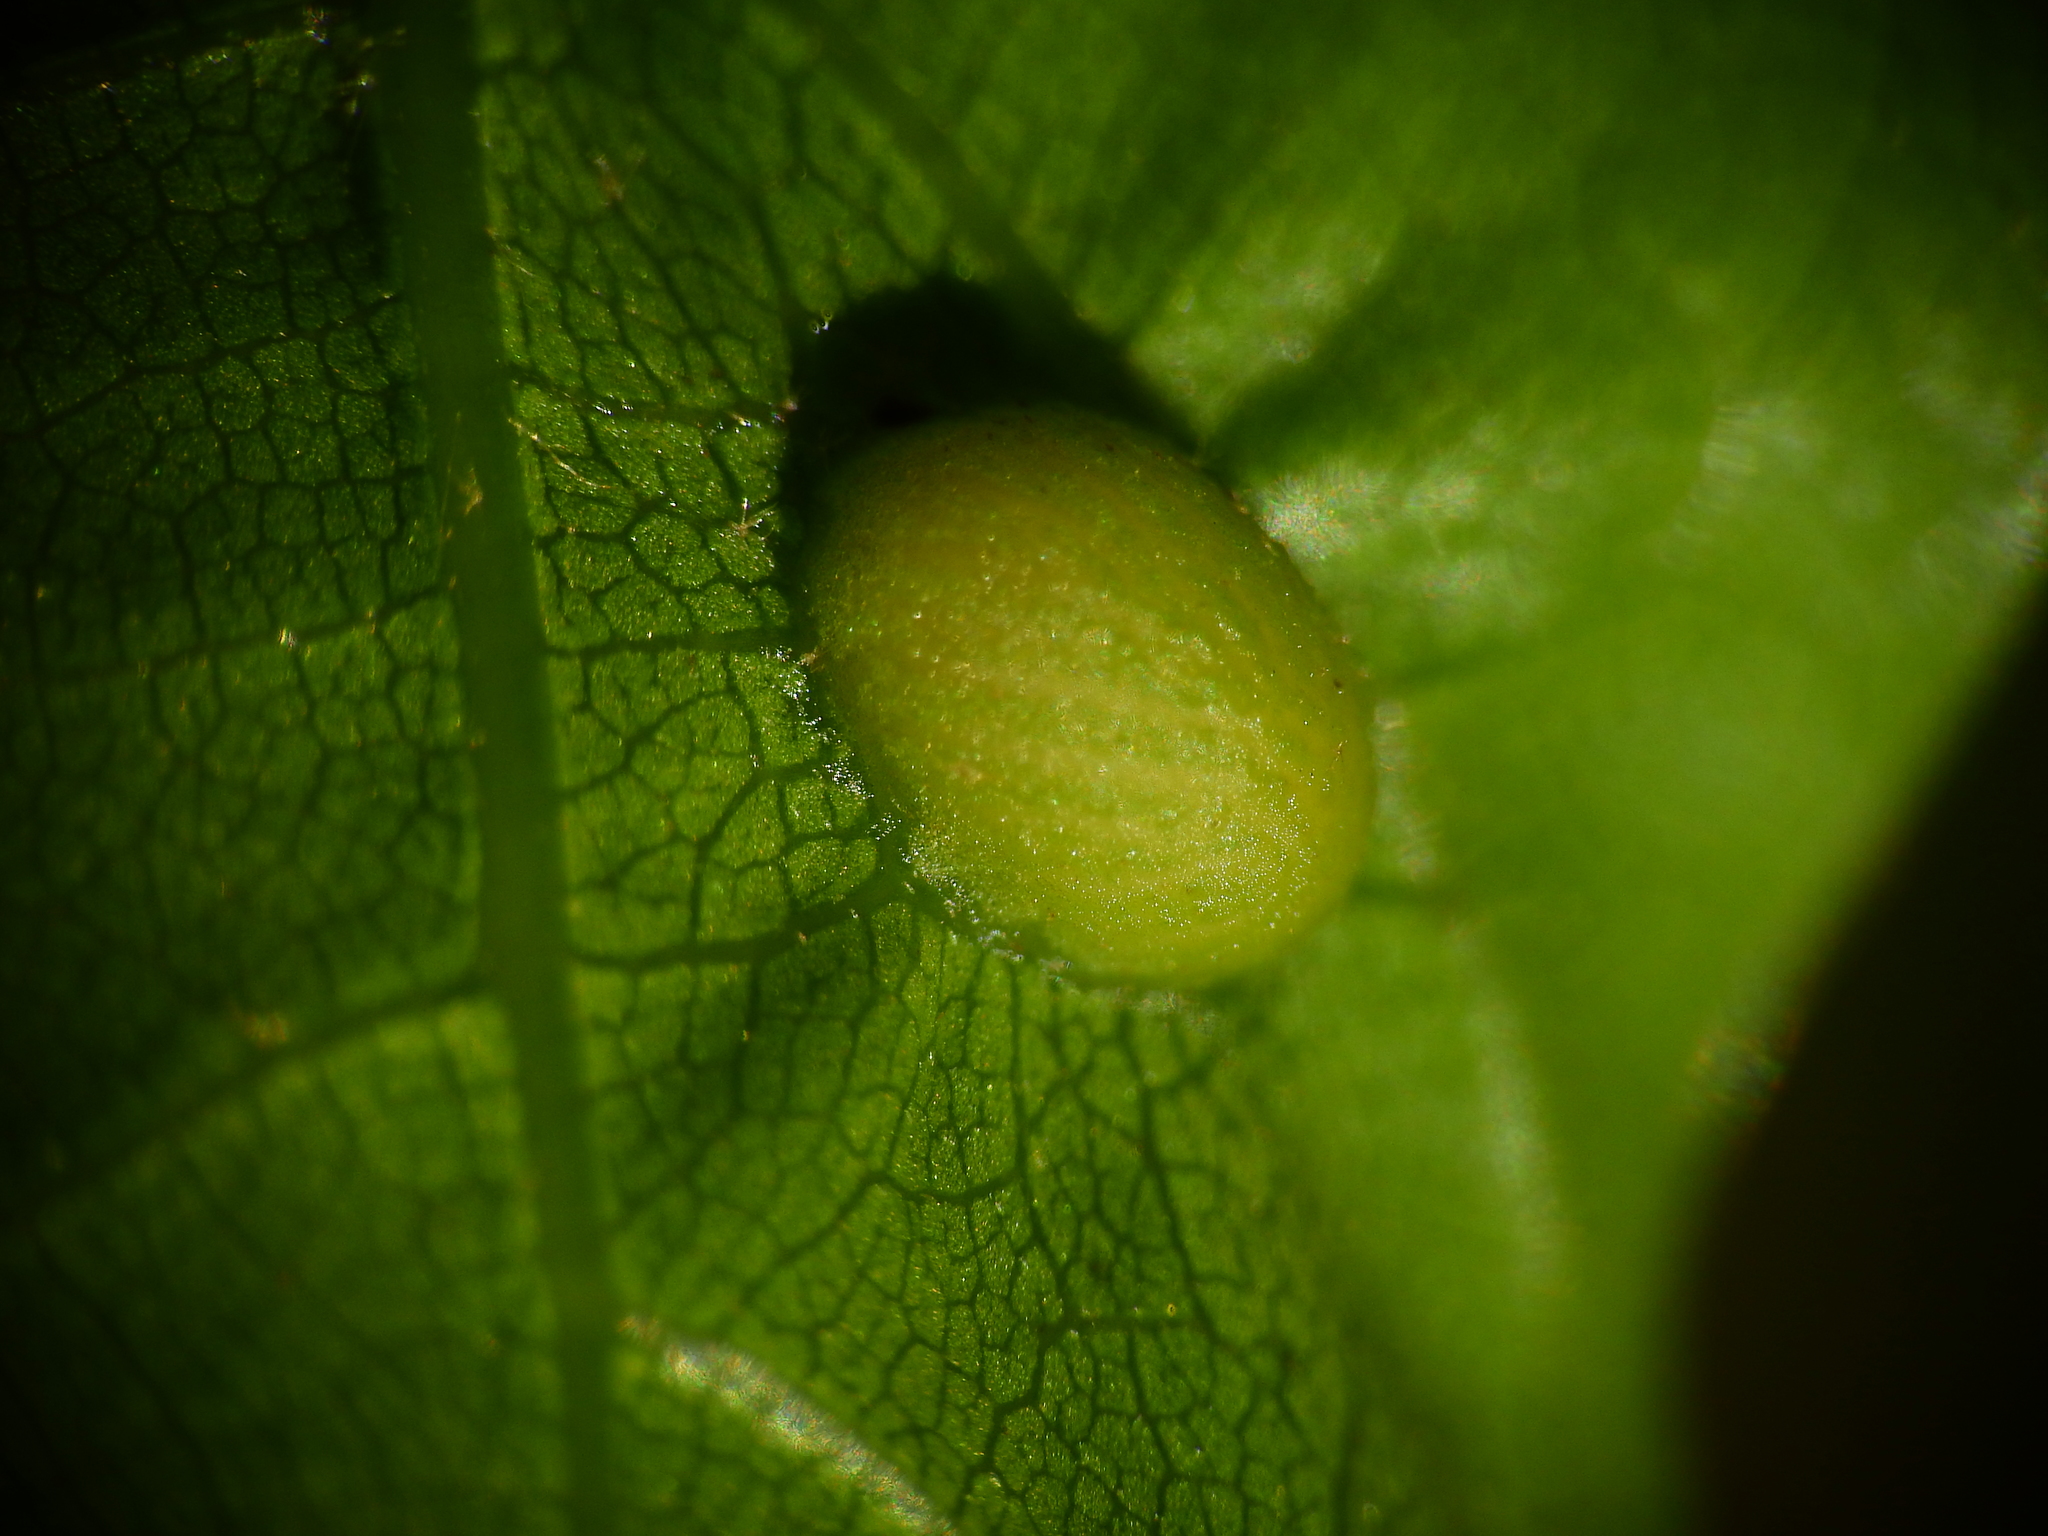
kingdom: Animalia
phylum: Arthropoda
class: Insecta
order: Hymenoptera
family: Cynipidae
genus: Dryocosmus
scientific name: Dryocosmus
